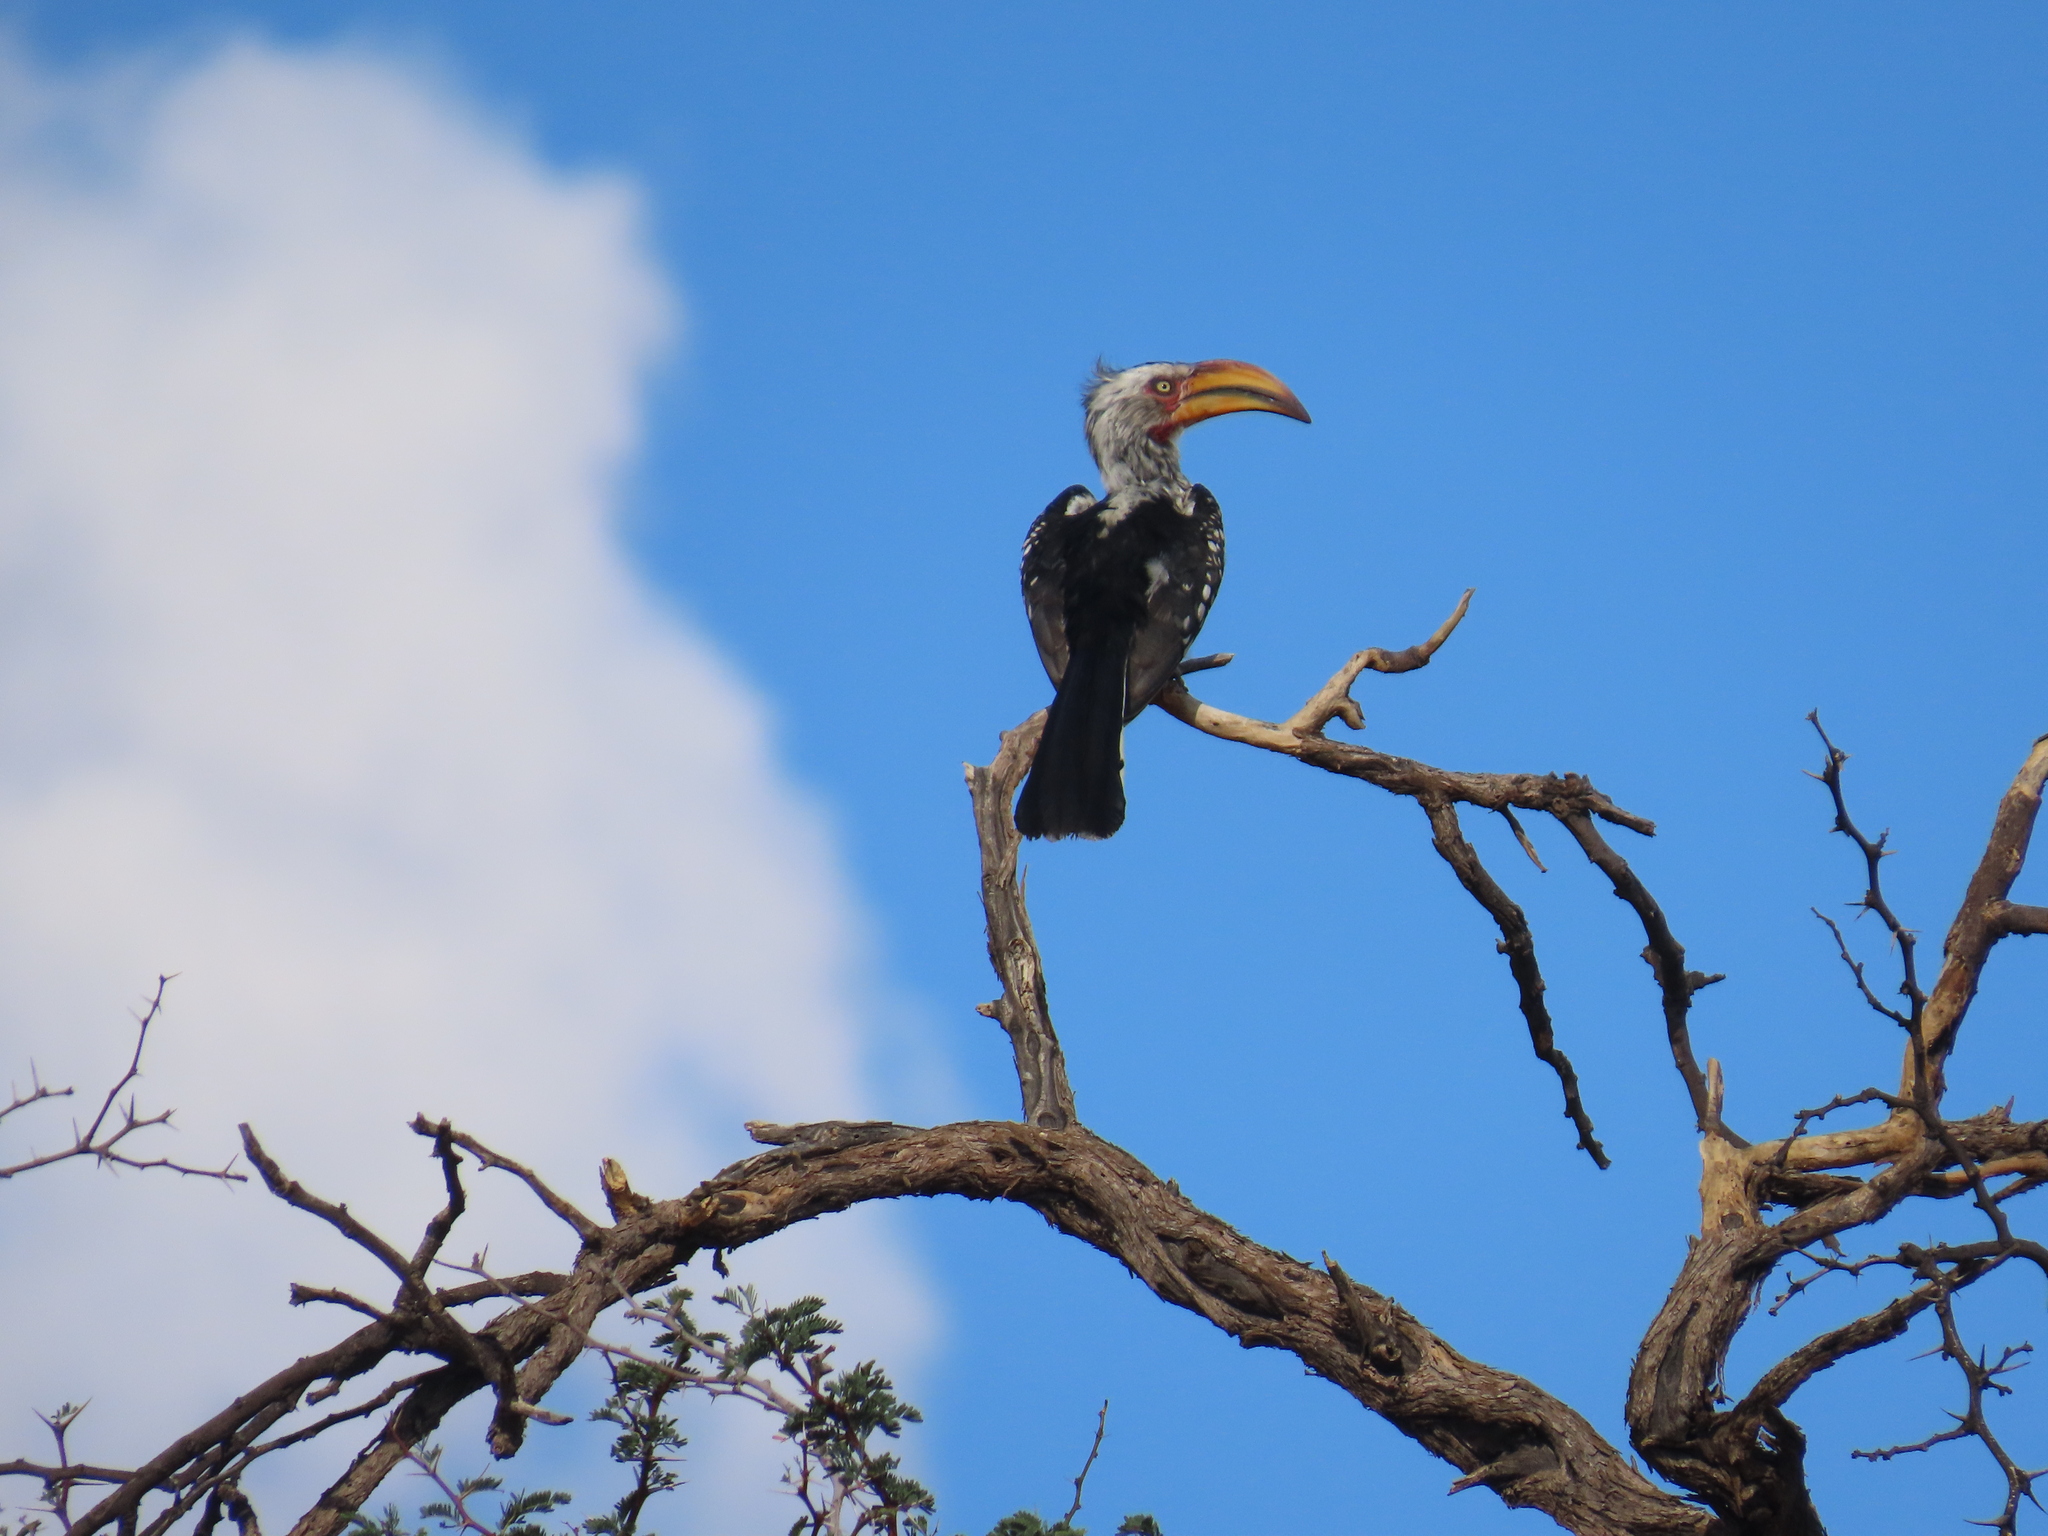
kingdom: Animalia
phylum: Chordata
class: Aves
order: Bucerotiformes
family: Bucerotidae
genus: Tockus
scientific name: Tockus leucomelas
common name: Southern yellow-billed hornbill
